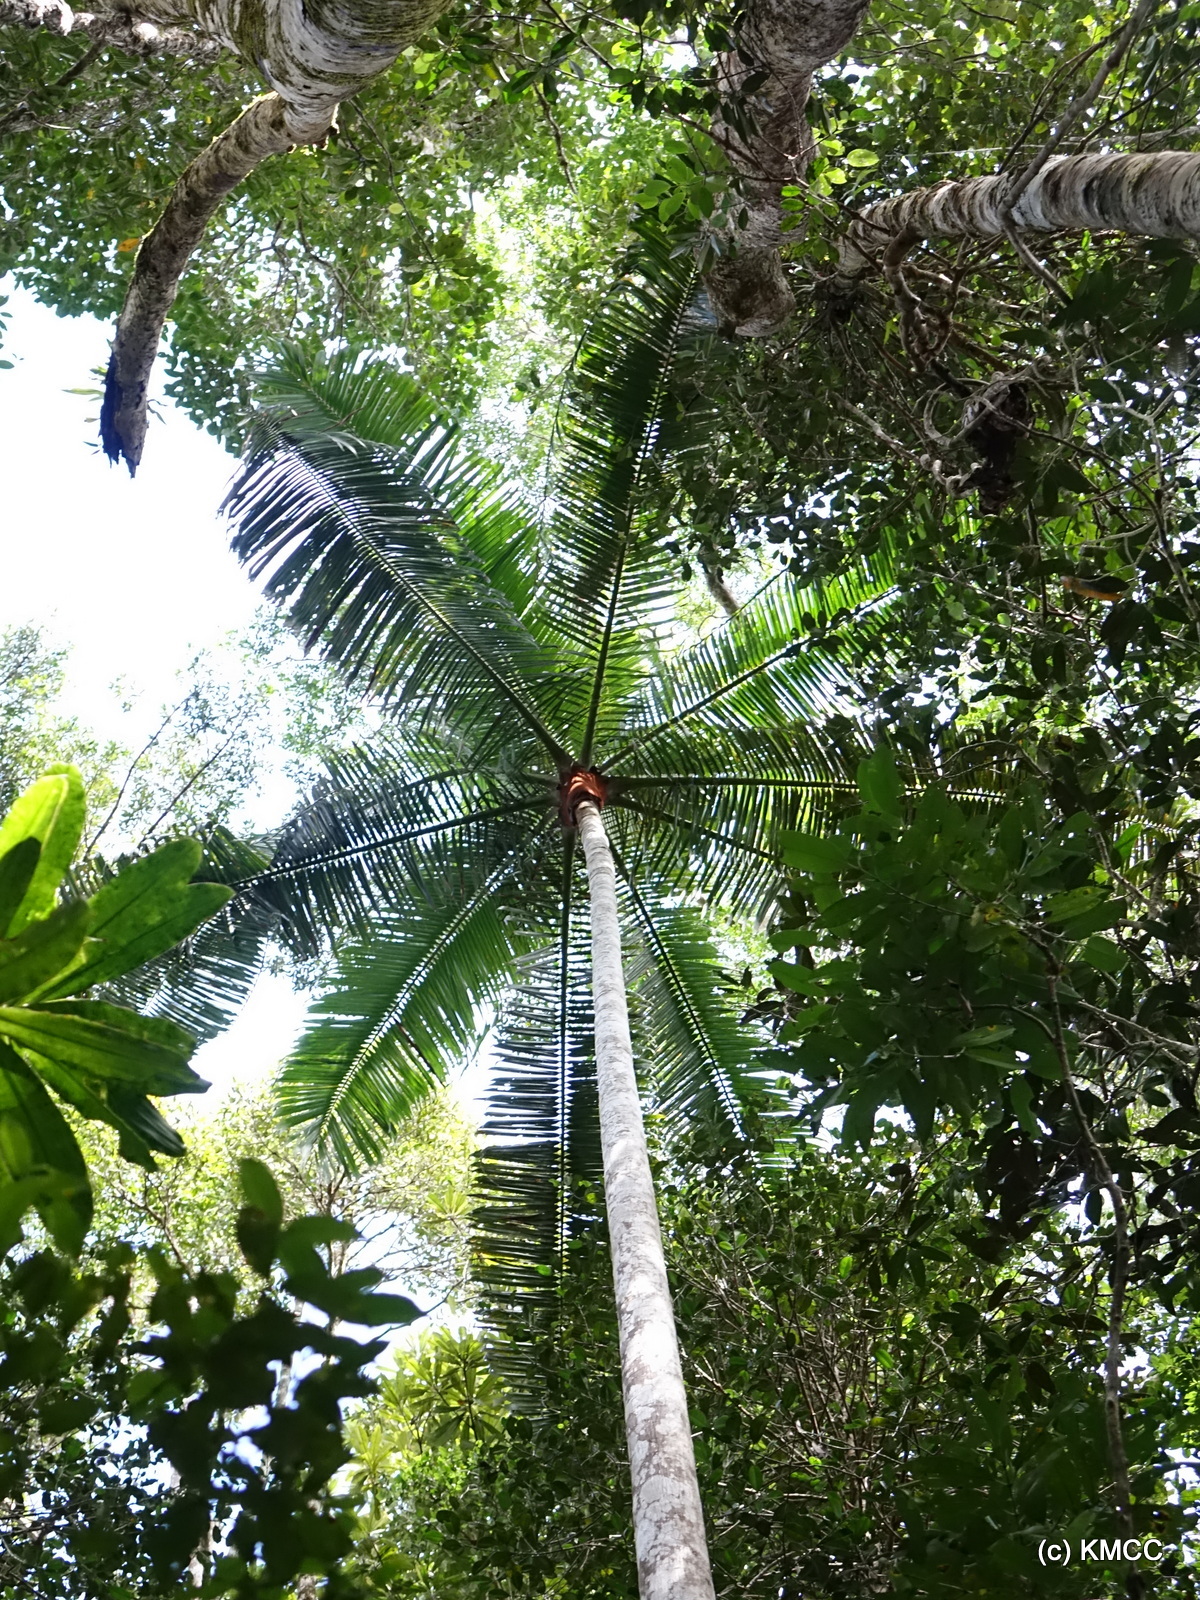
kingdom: Plantae
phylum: Tracheophyta
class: Liliopsida
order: Arecales
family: Arecaceae
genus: Dypsis
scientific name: Dypsis lastelliana
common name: Redneck palm
